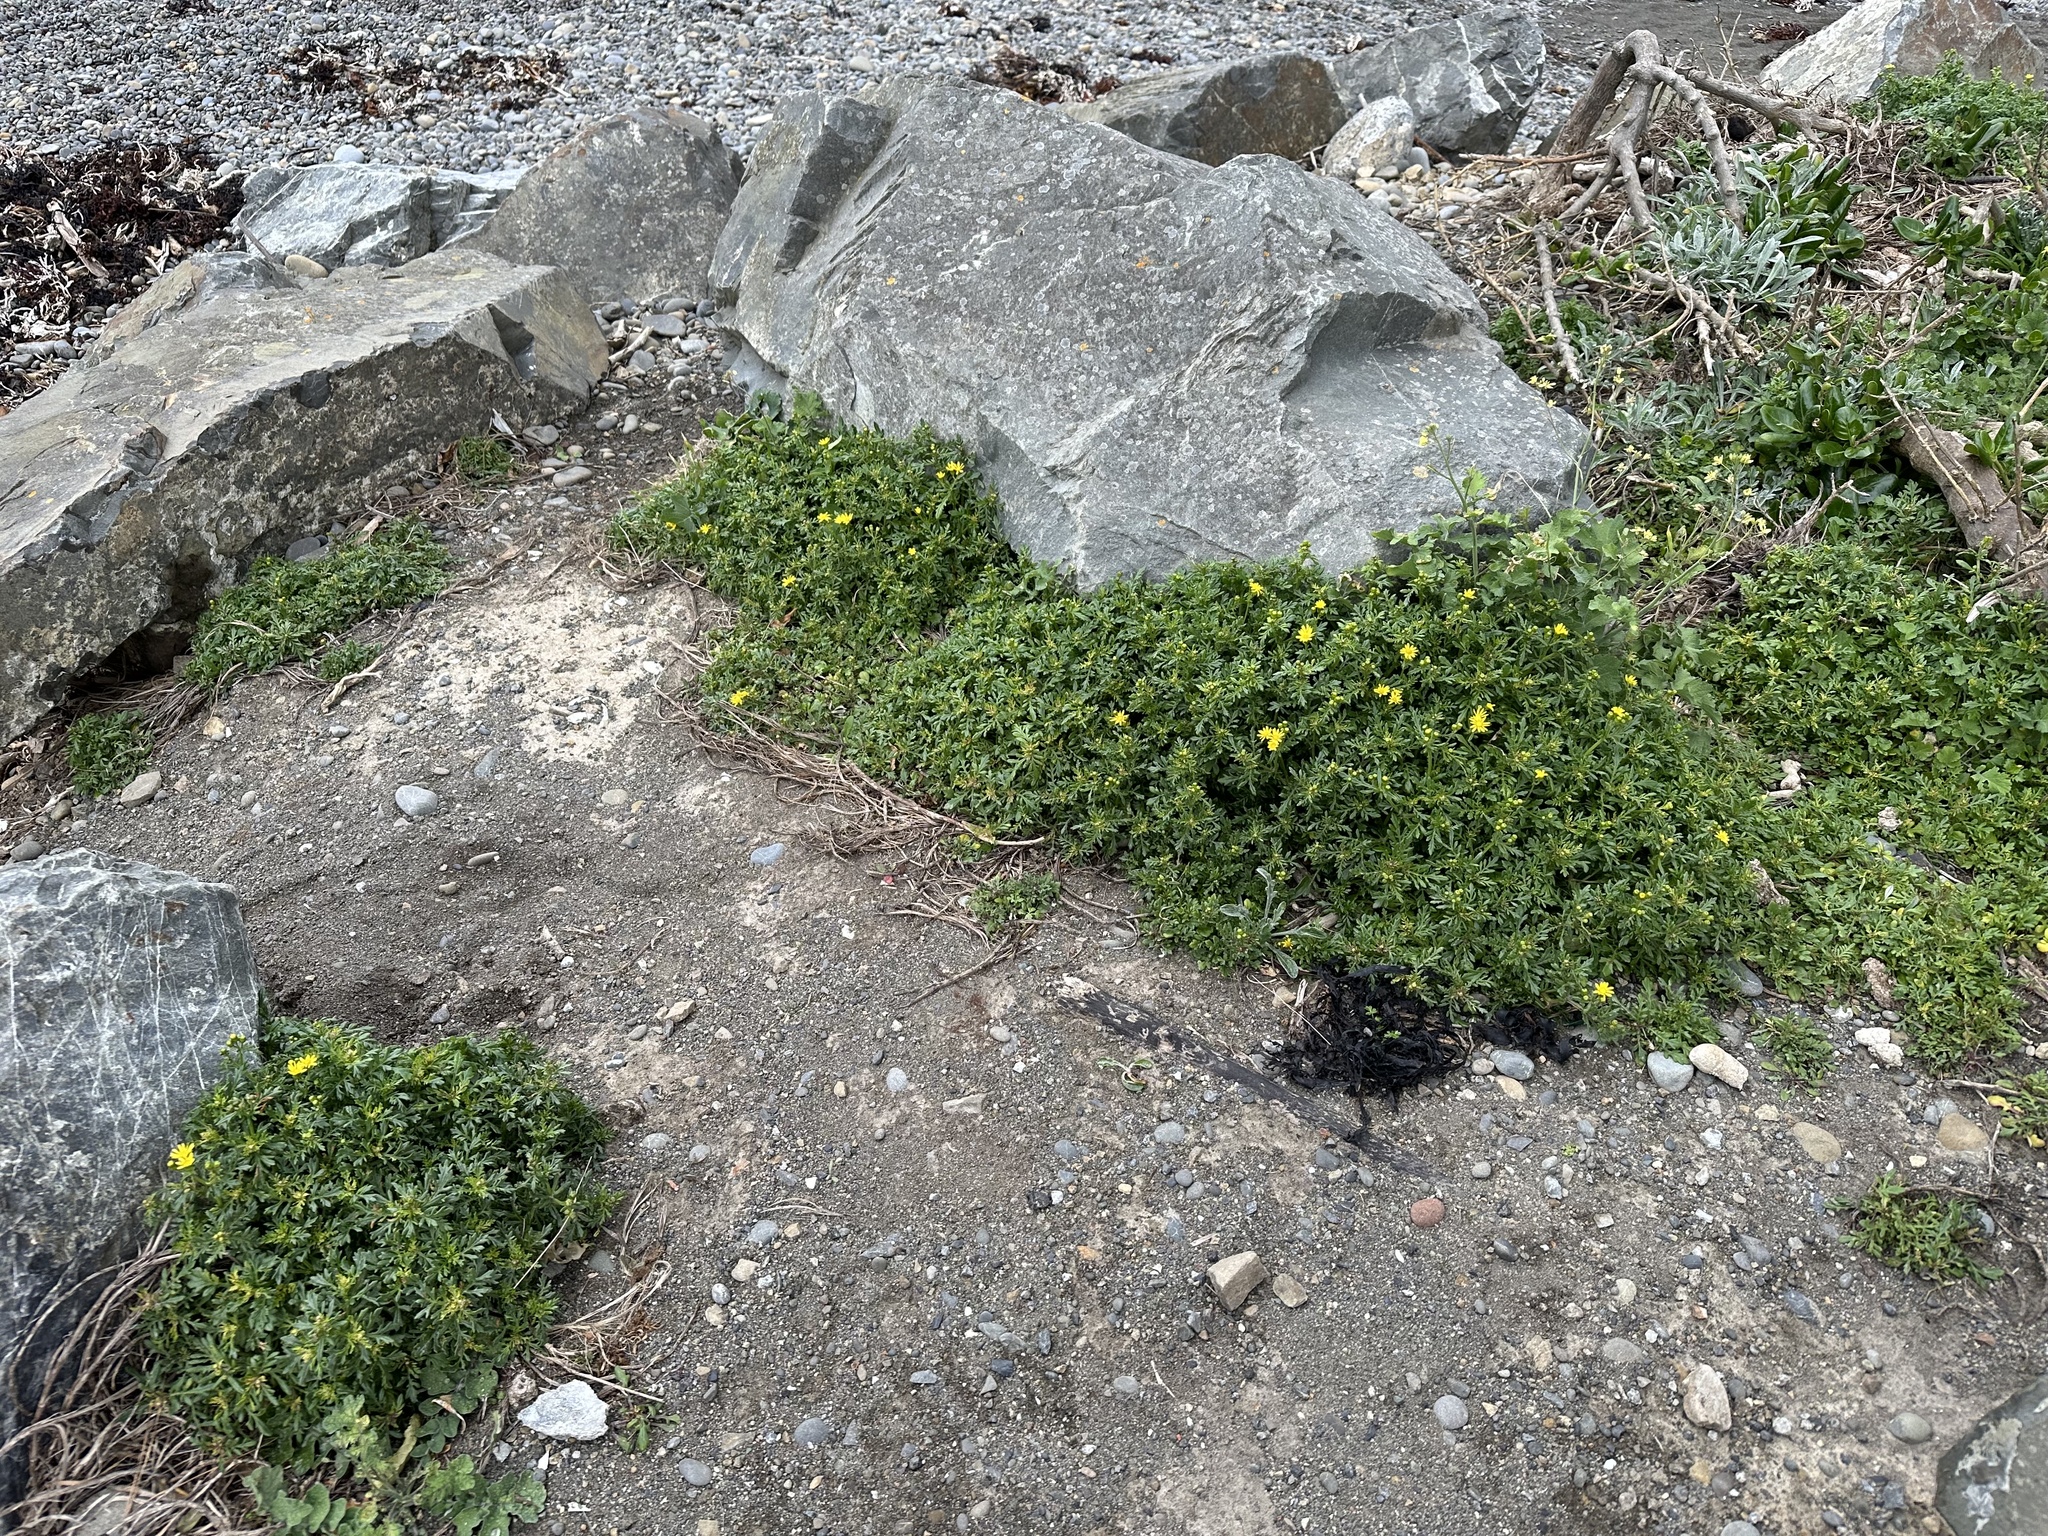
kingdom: Plantae
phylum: Tracheophyta
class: Magnoliopsida
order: Asterales
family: Asteraceae
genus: Senecio
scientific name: Senecio lautus
